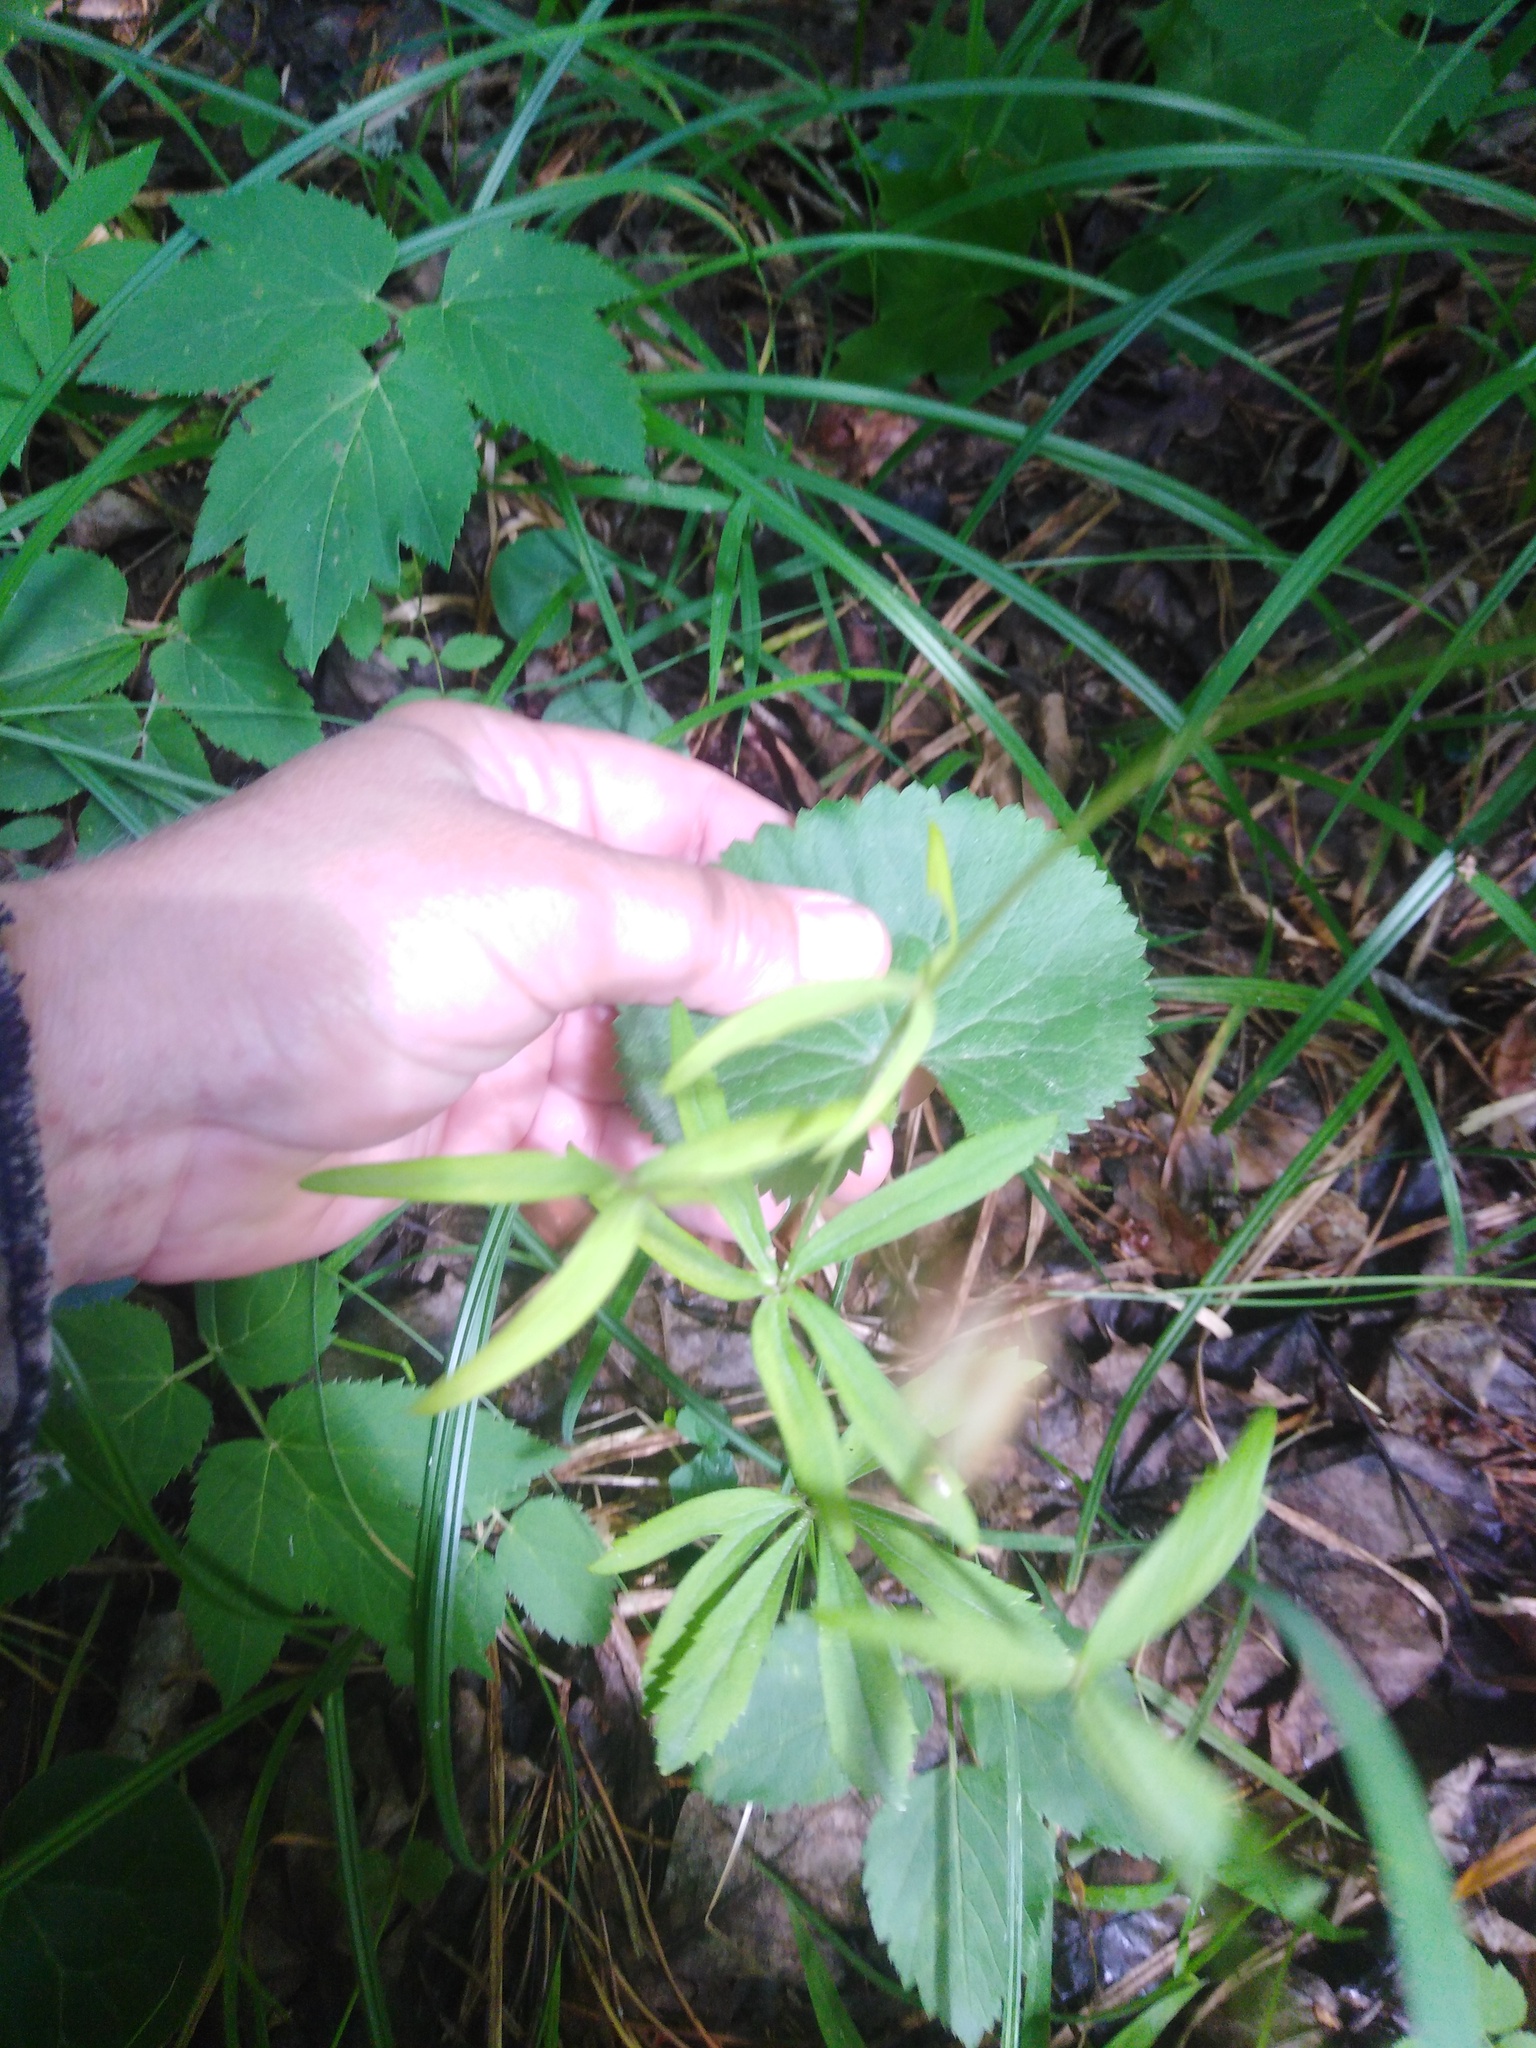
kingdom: Plantae
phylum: Tracheophyta
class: Magnoliopsida
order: Ranunculales
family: Ranunculaceae
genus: Ranunculus
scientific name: Ranunculus cassubicus
